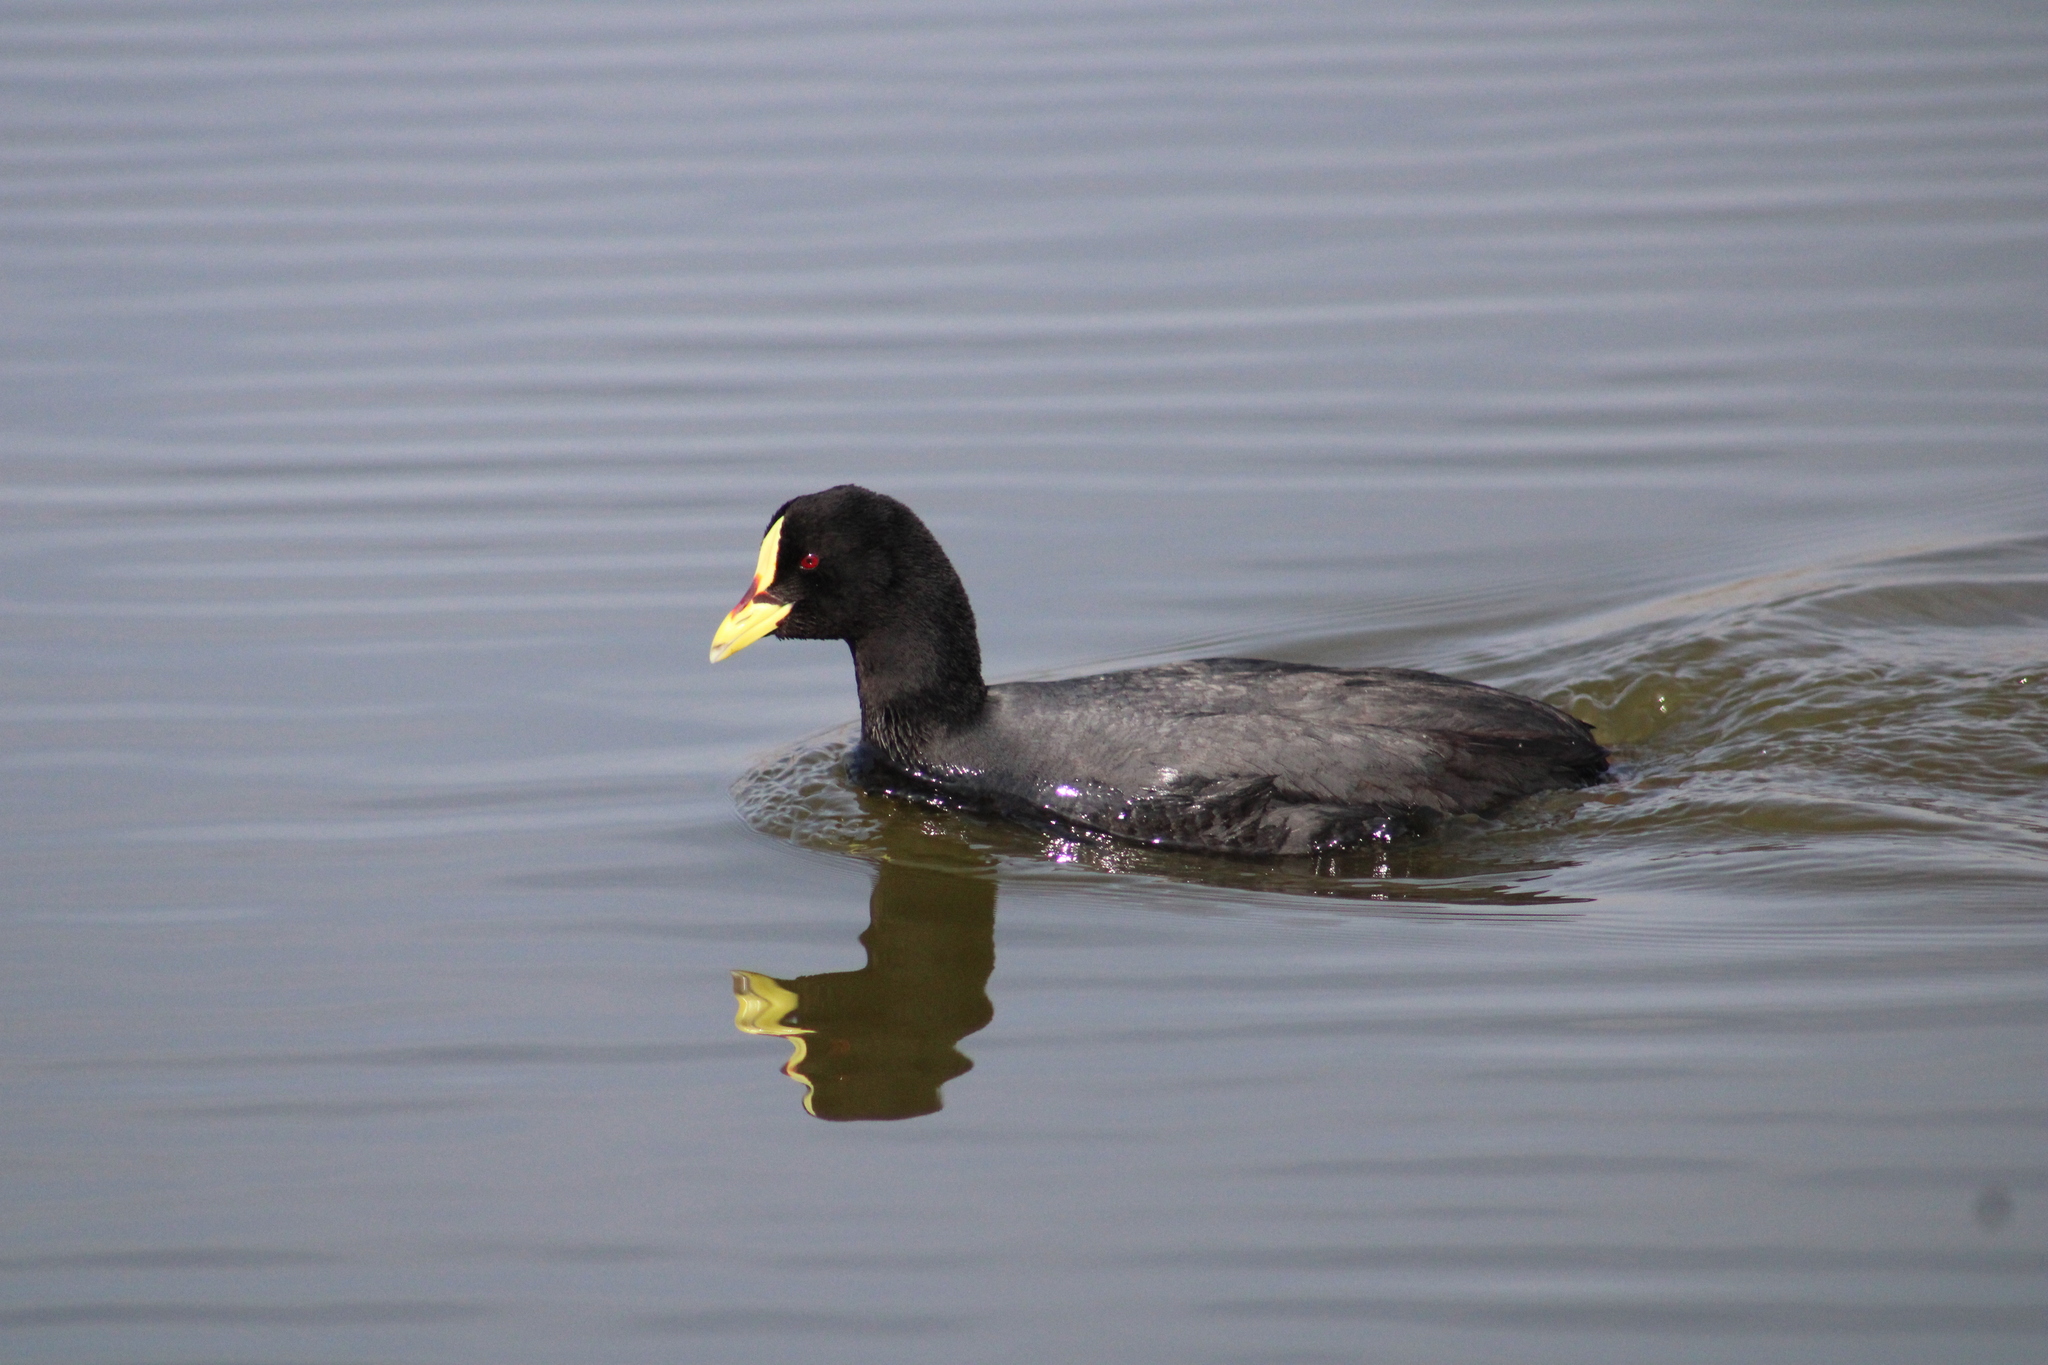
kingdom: Animalia
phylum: Chordata
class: Aves
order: Gruiformes
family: Rallidae
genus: Fulica
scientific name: Fulica armillata
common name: Red-gartered coot
